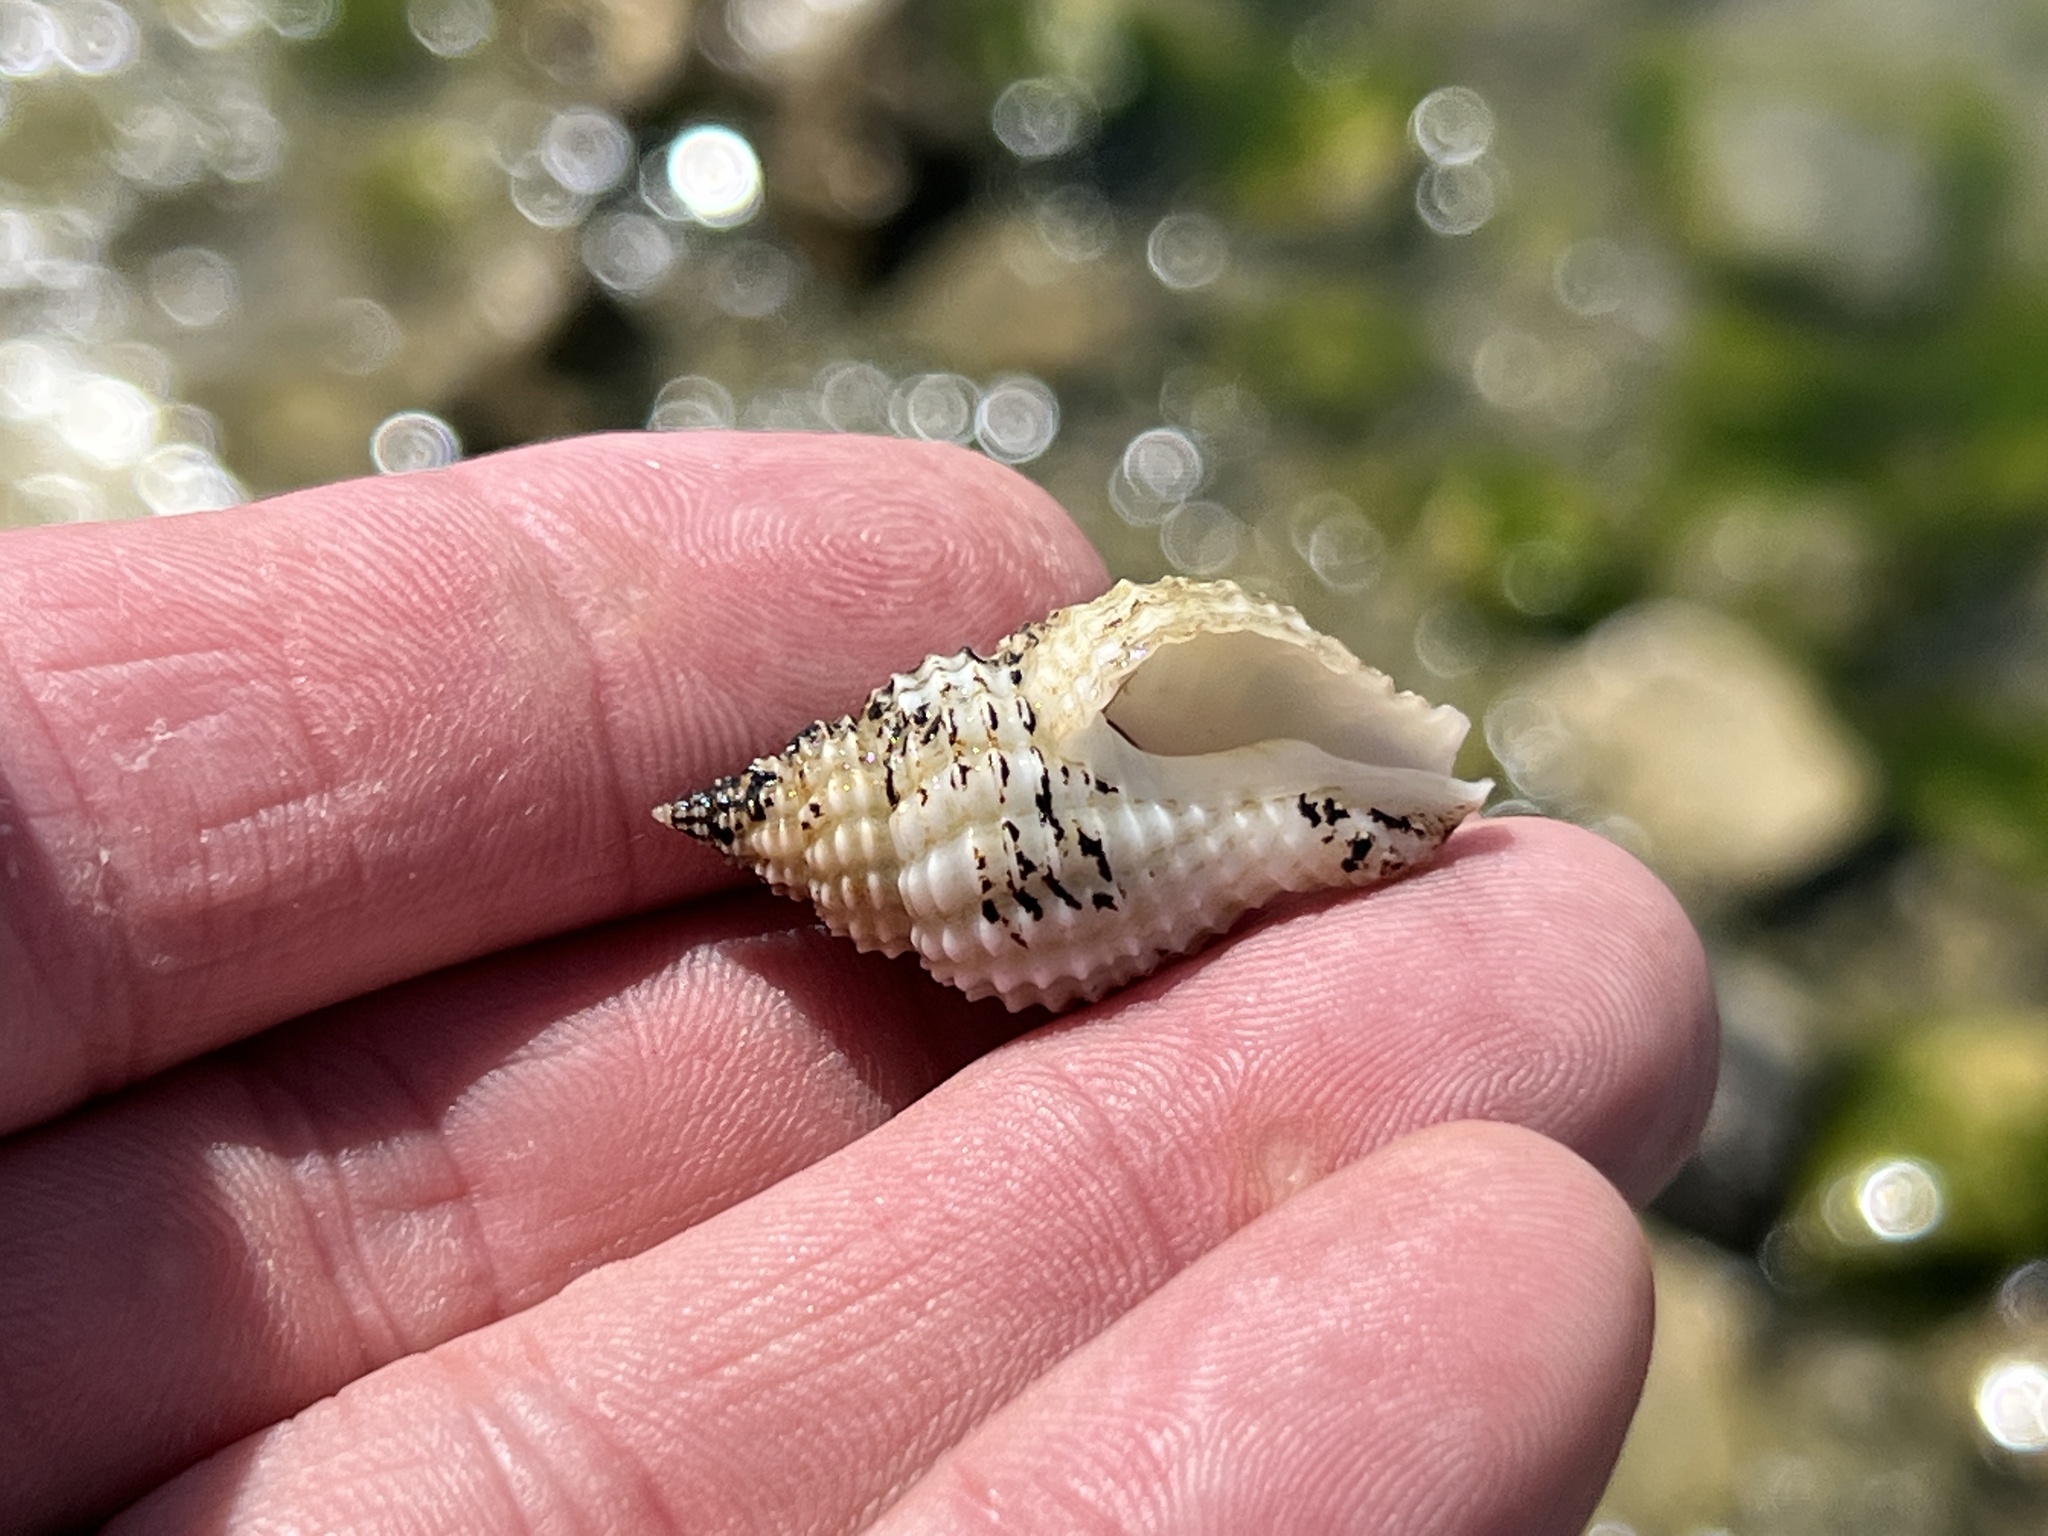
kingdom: Animalia
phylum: Mollusca
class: Gastropoda
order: Neogastropoda
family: Pisaniidae
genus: Solenosteira
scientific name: Solenosteira cancellaria
